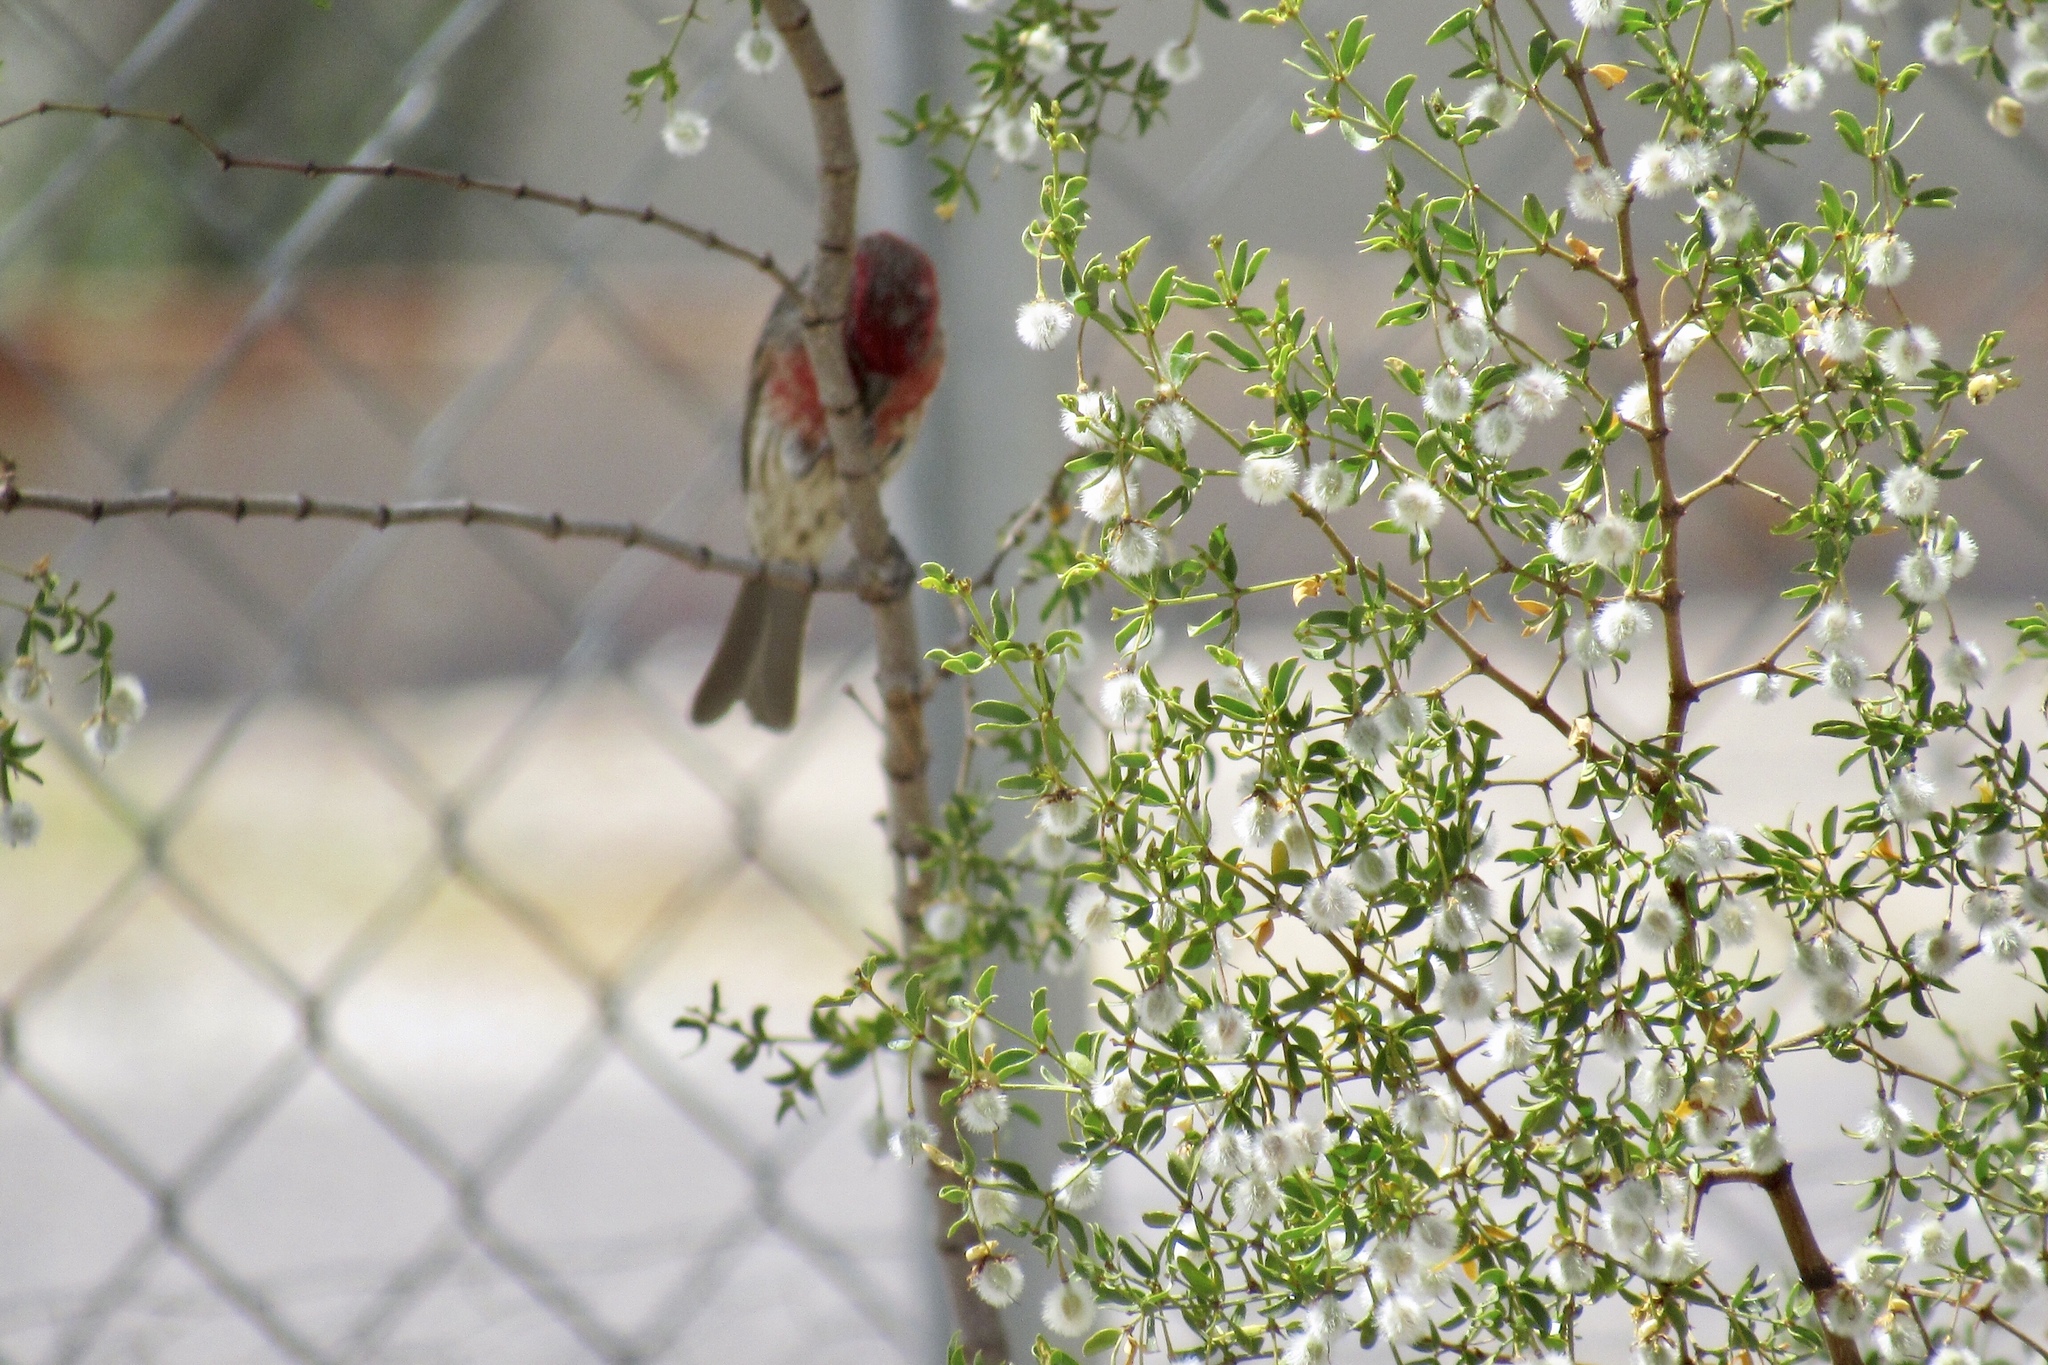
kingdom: Animalia
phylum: Chordata
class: Aves
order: Passeriformes
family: Fringillidae
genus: Haemorhous
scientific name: Haemorhous mexicanus
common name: House finch
